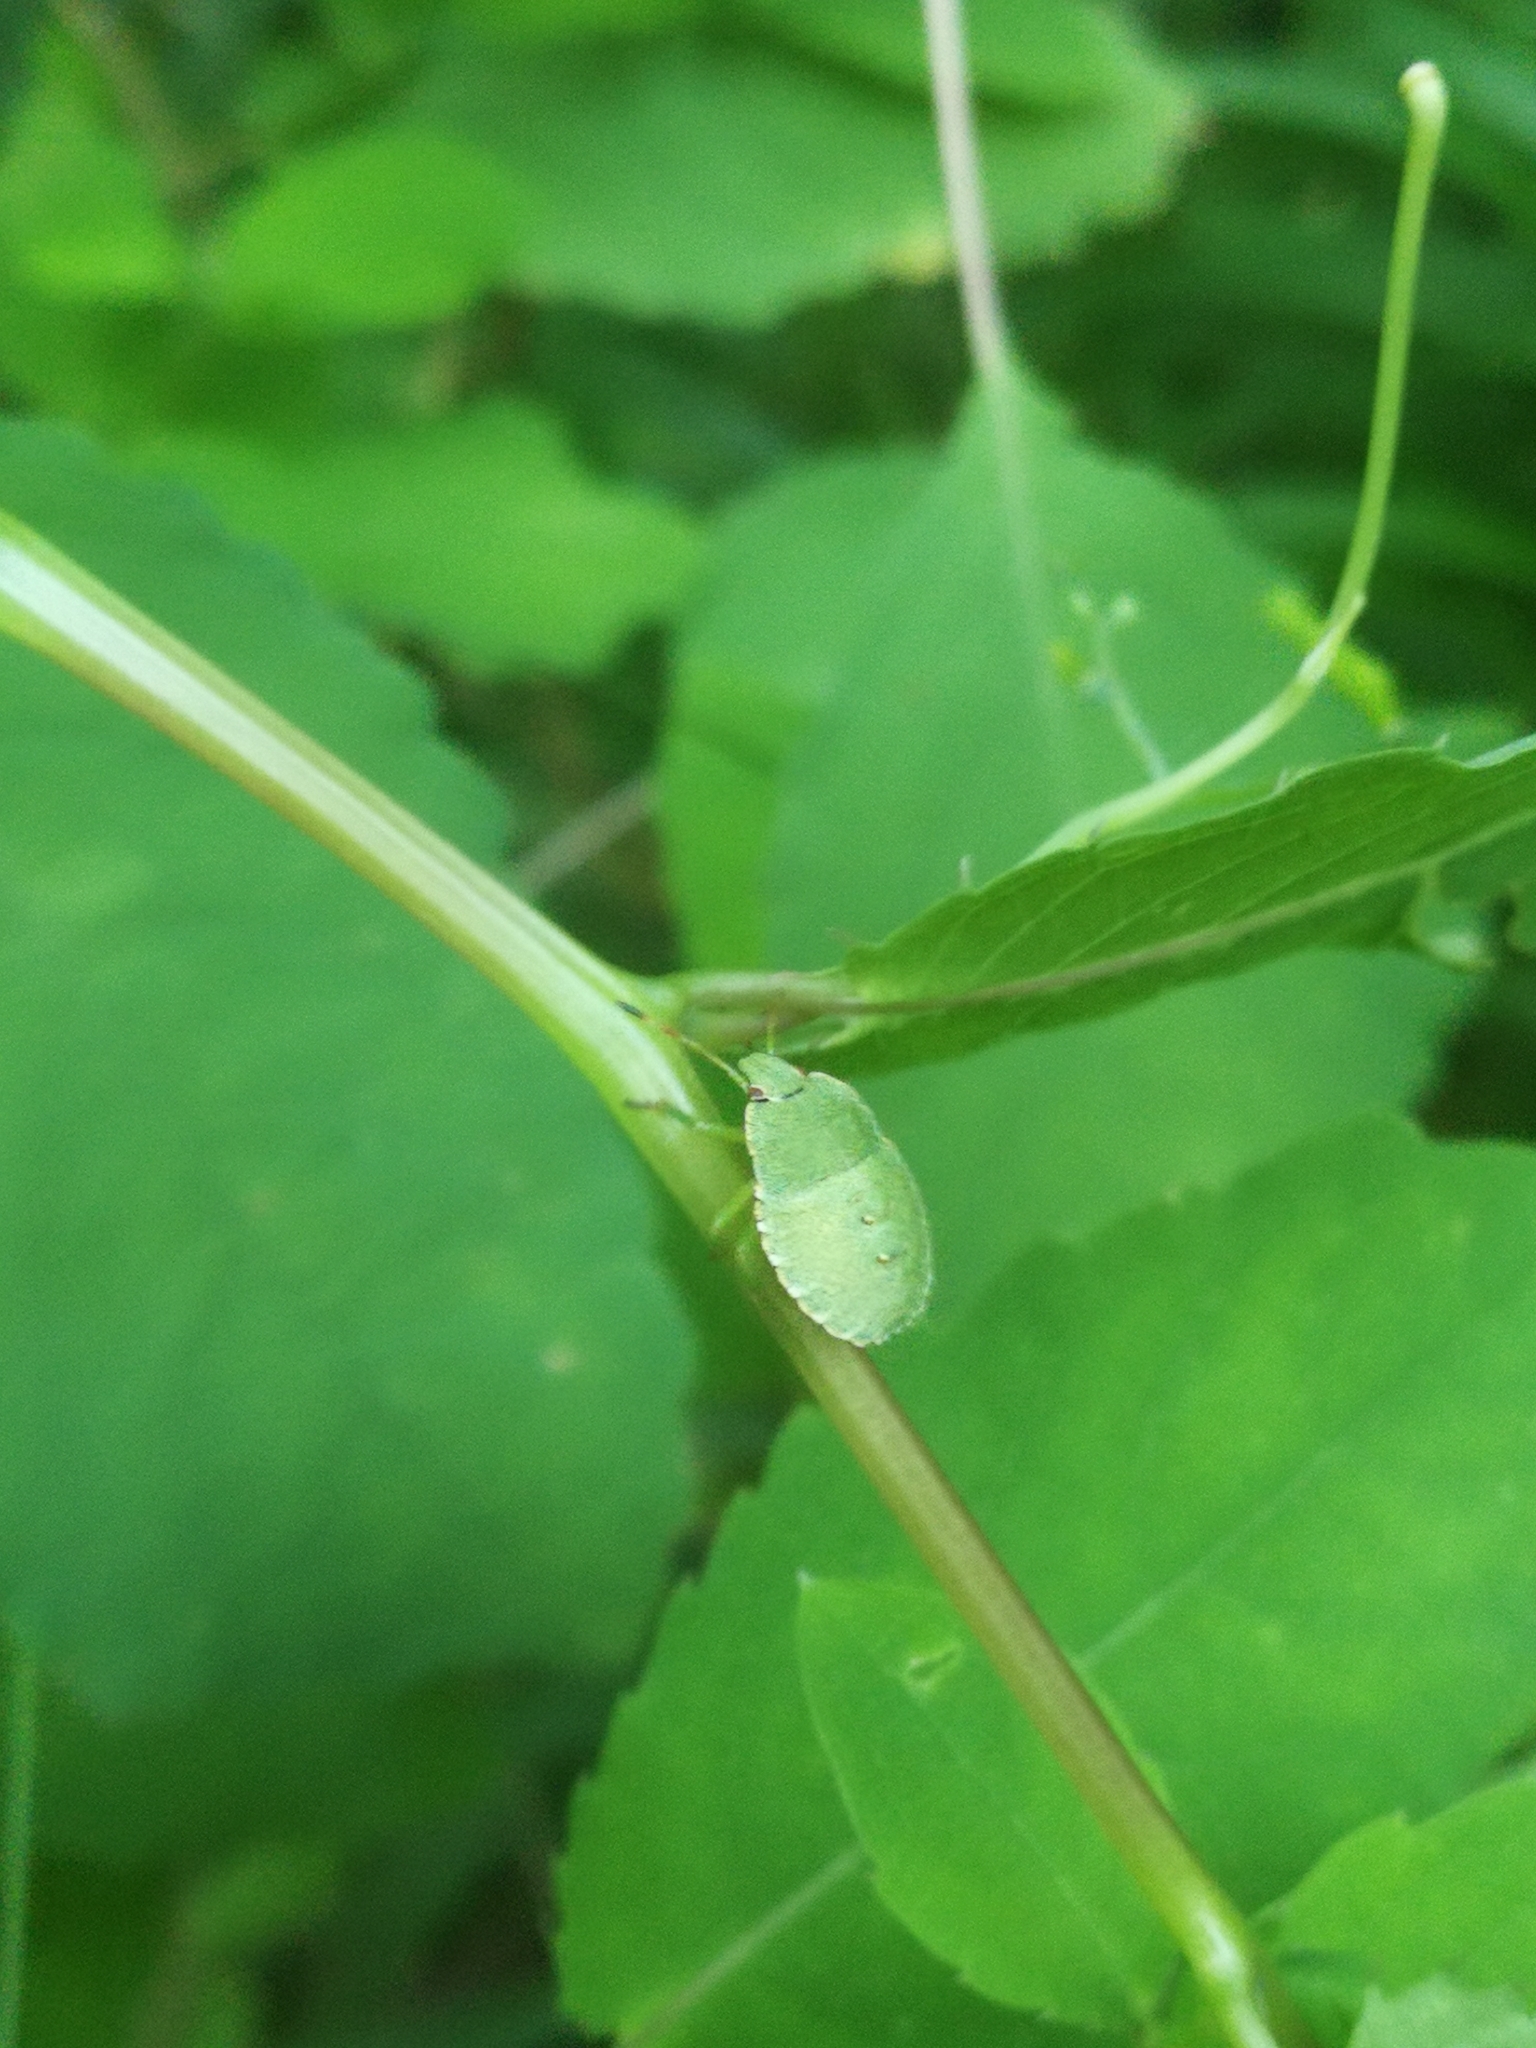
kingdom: Animalia
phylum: Arthropoda
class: Insecta
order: Hemiptera
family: Pentatomidae
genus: Palomena
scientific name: Palomena prasina
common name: Green shieldbug
